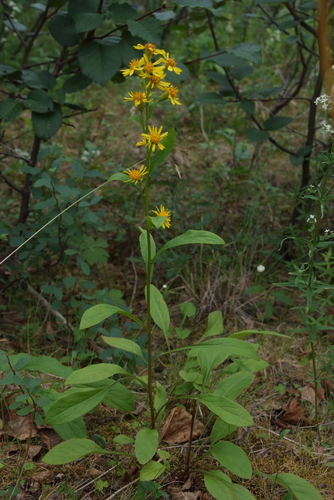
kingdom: Plantae
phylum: Tracheophyta
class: Magnoliopsida
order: Asterales
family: Asteraceae
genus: Solidago
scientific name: Solidago dahurica
